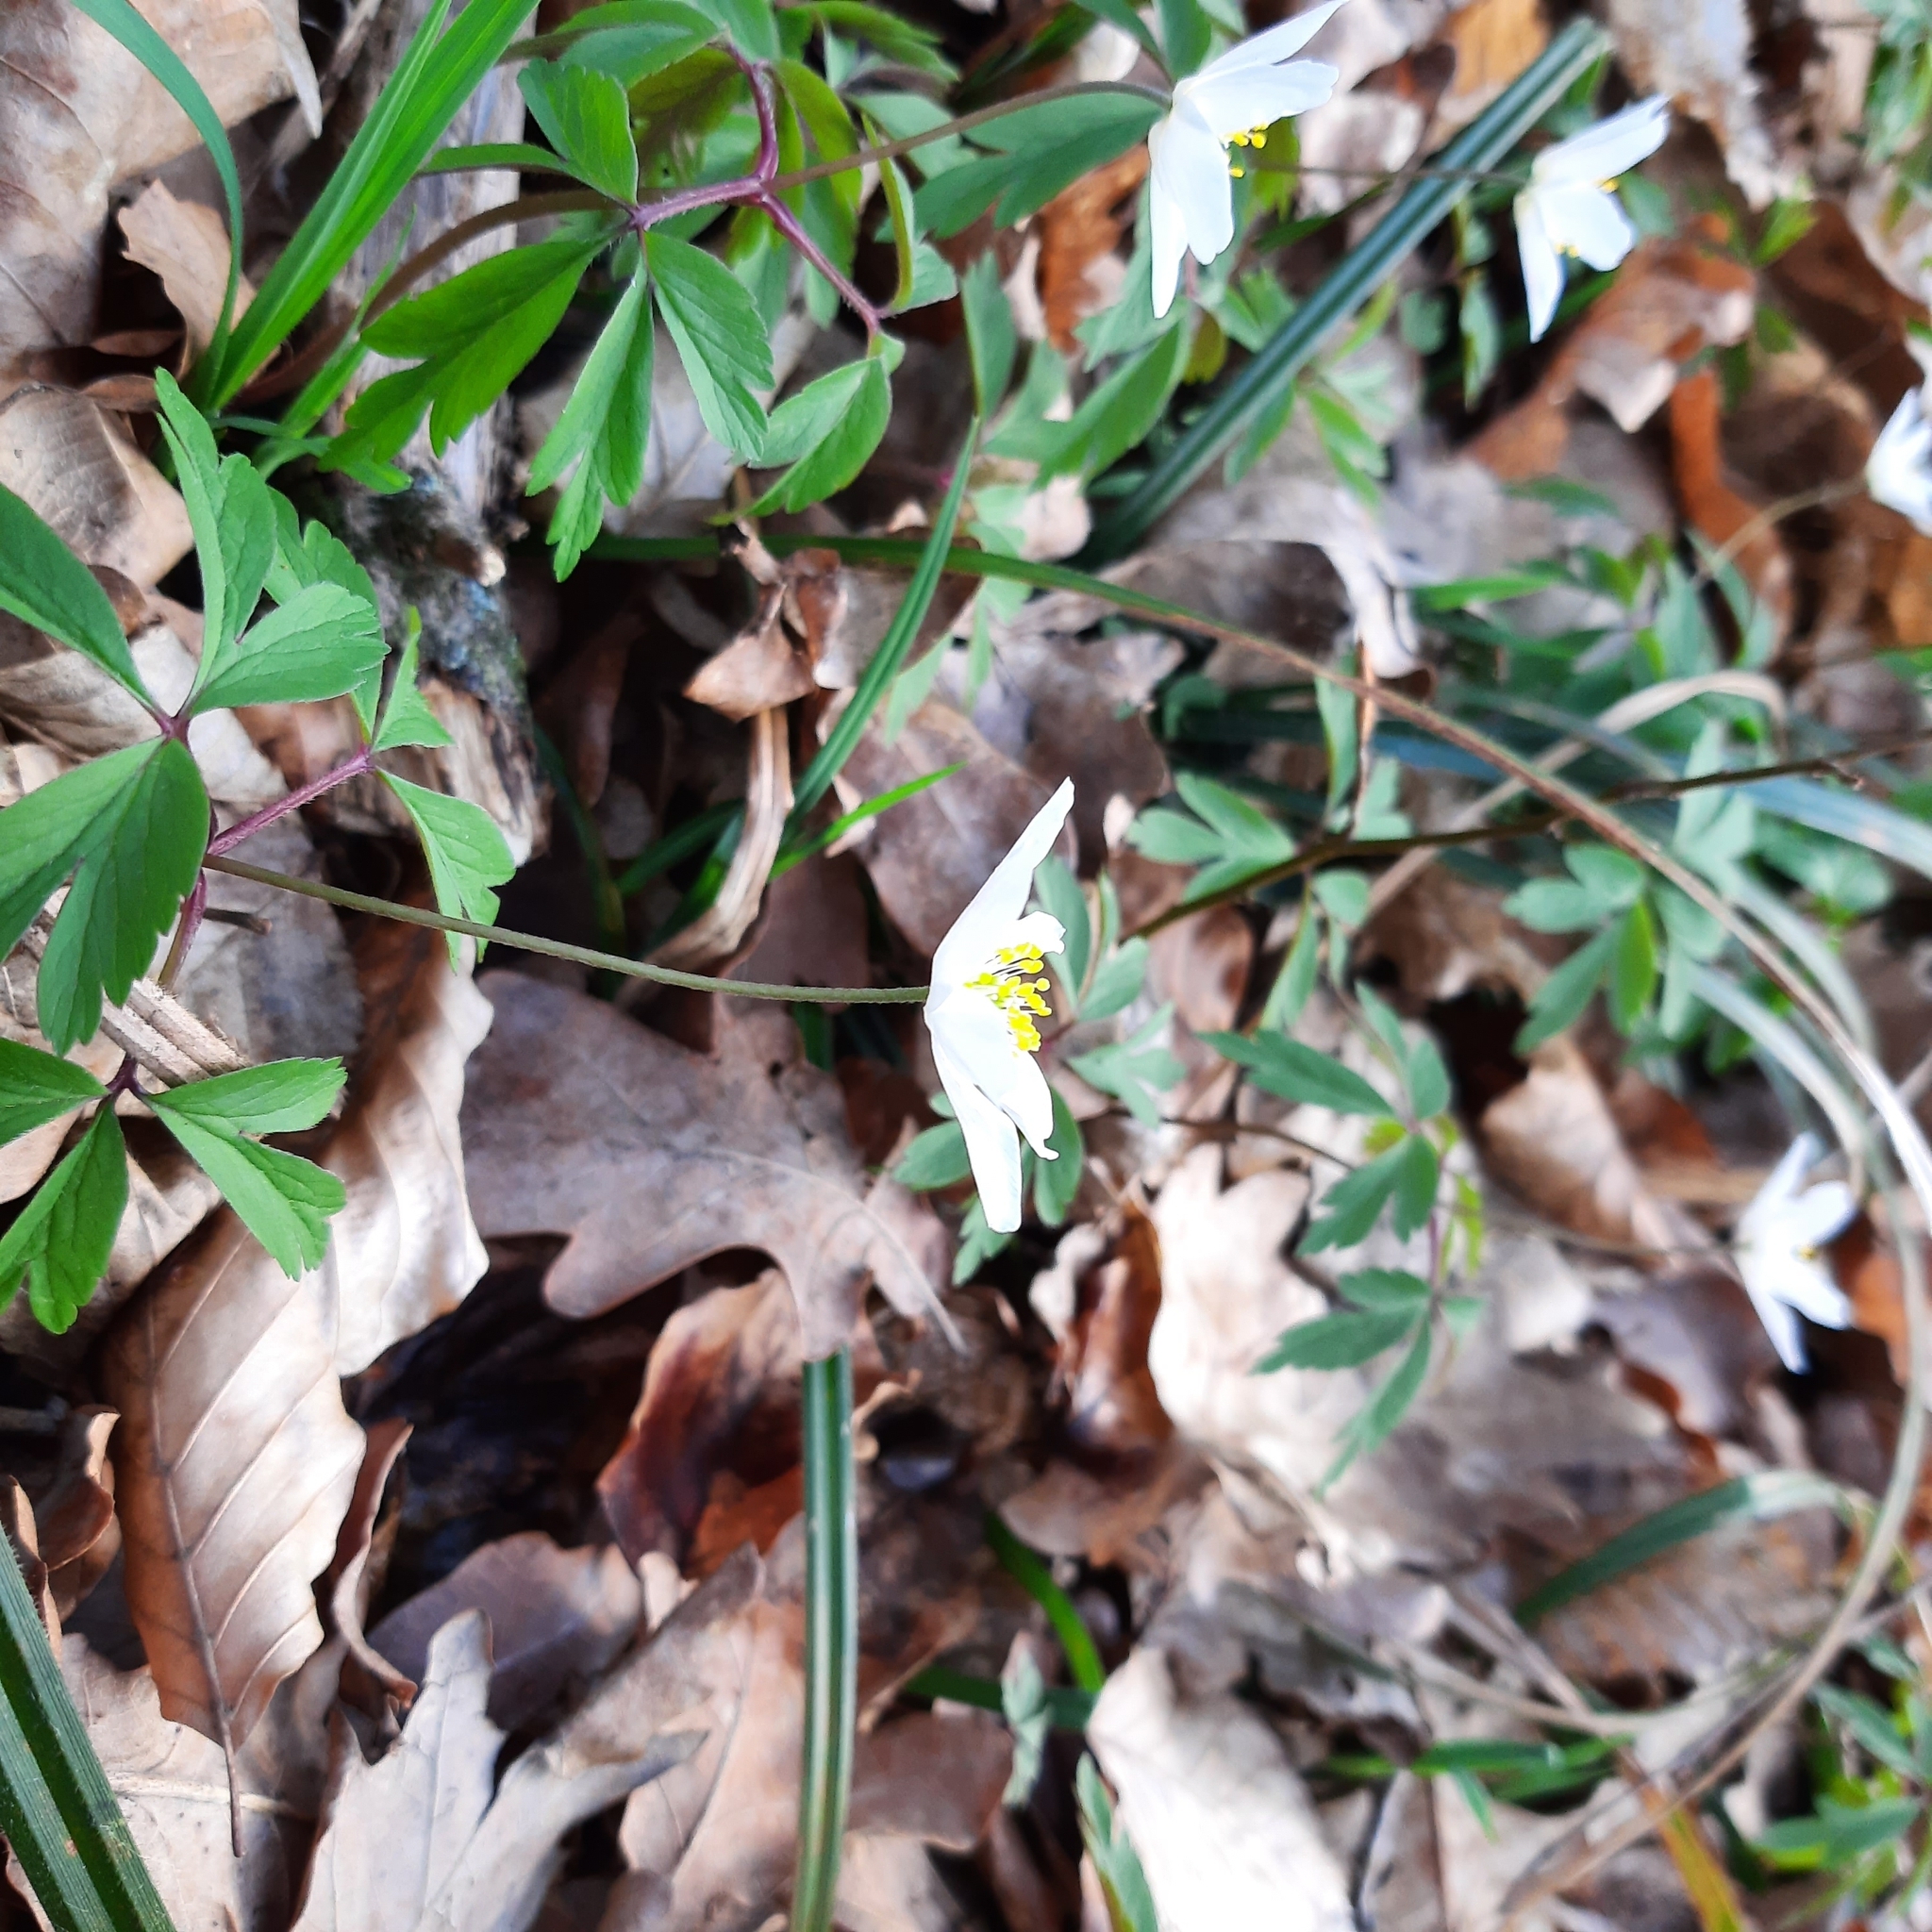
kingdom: Plantae
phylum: Tracheophyta
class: Magnoliopsida
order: Ranunculales
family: Ranunculaceae
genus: Anemone
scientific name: Anemone nemorosa
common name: Wood anemone
